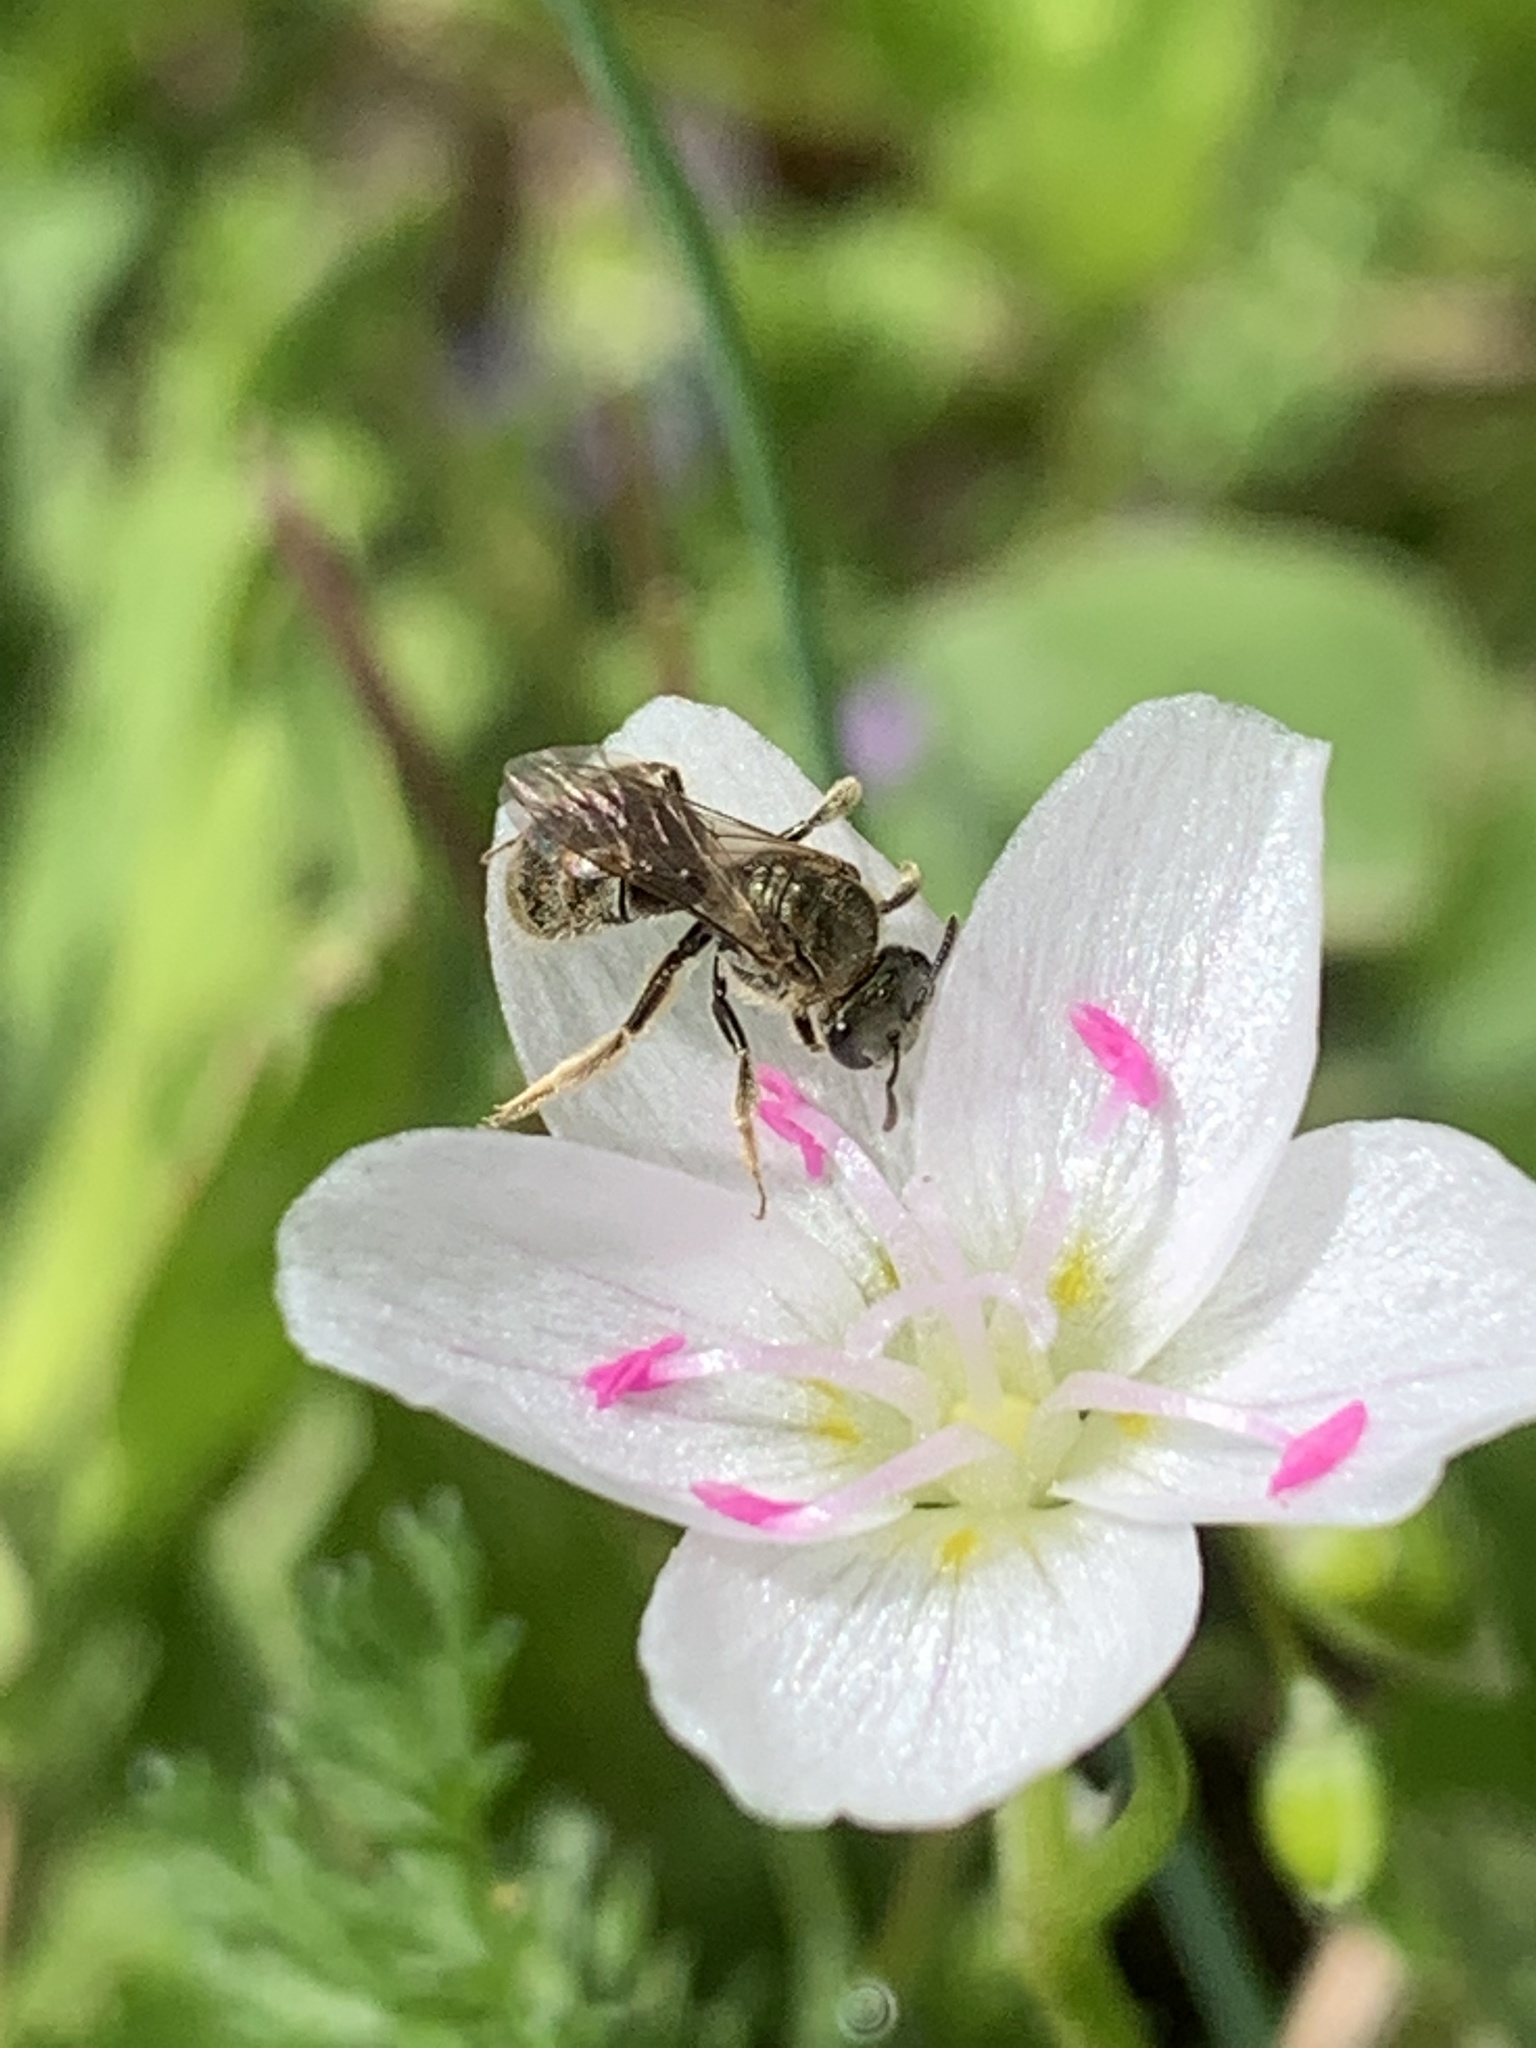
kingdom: Animalia
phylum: Arthropoda
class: Insecta
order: Hymenoptera
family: Halictidae
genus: Dialictus
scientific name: Dialictus
